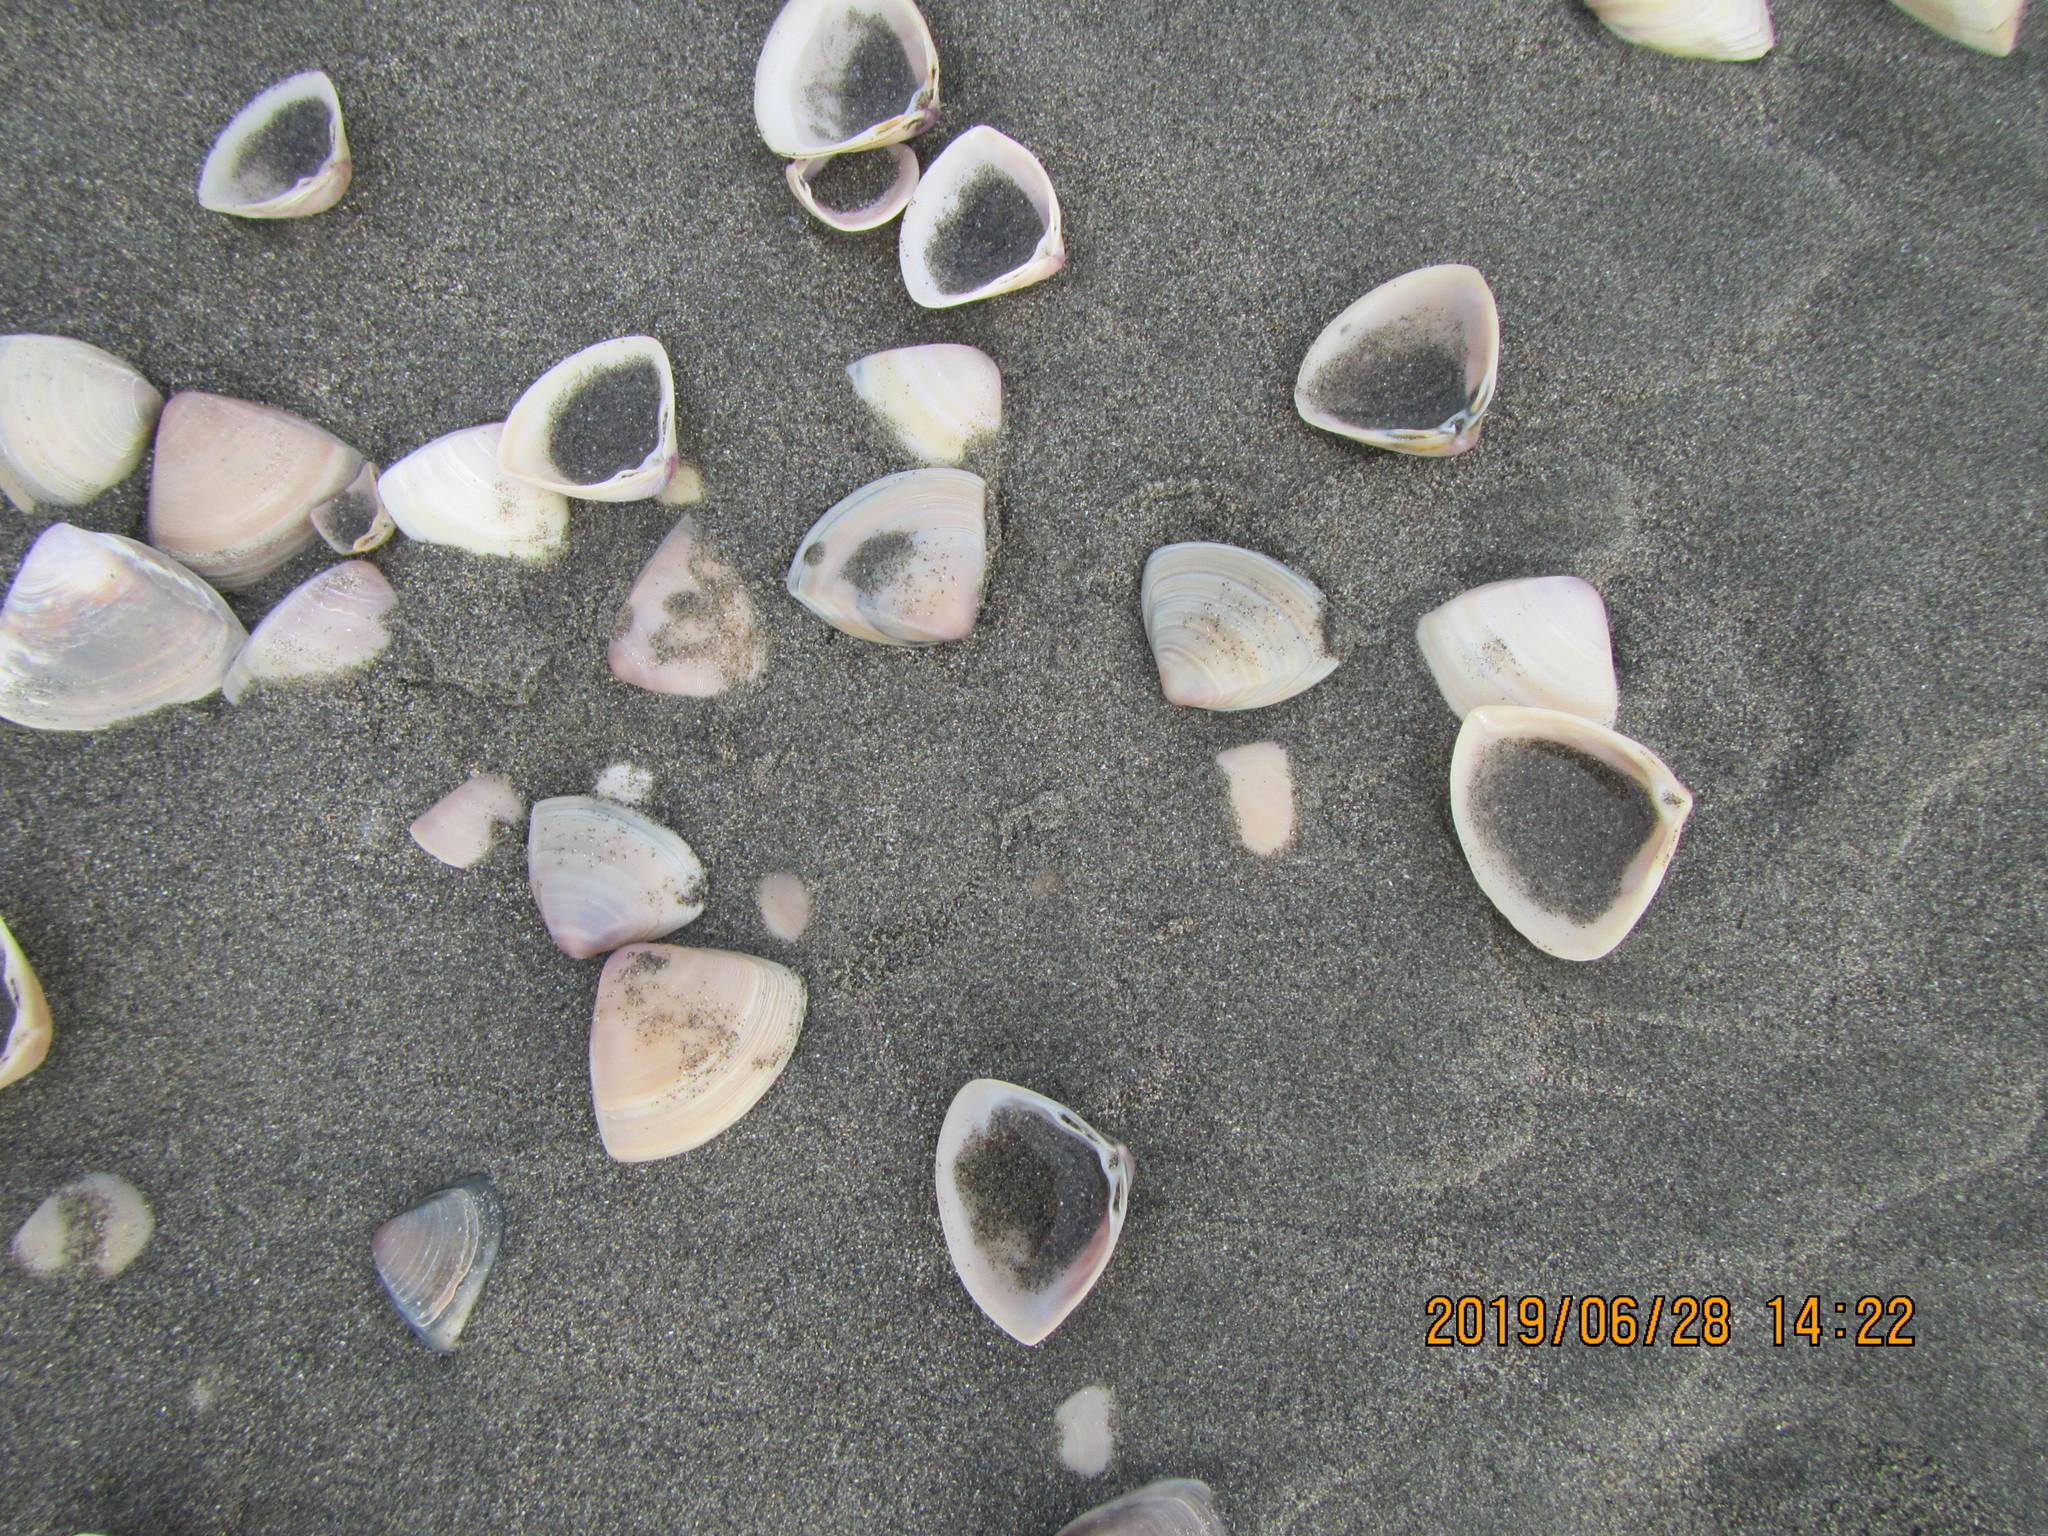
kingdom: Animalia
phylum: Mollusca
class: Bivalvia
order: Venerida
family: Mactridae
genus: Crassula
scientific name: Crassula aequilatera
